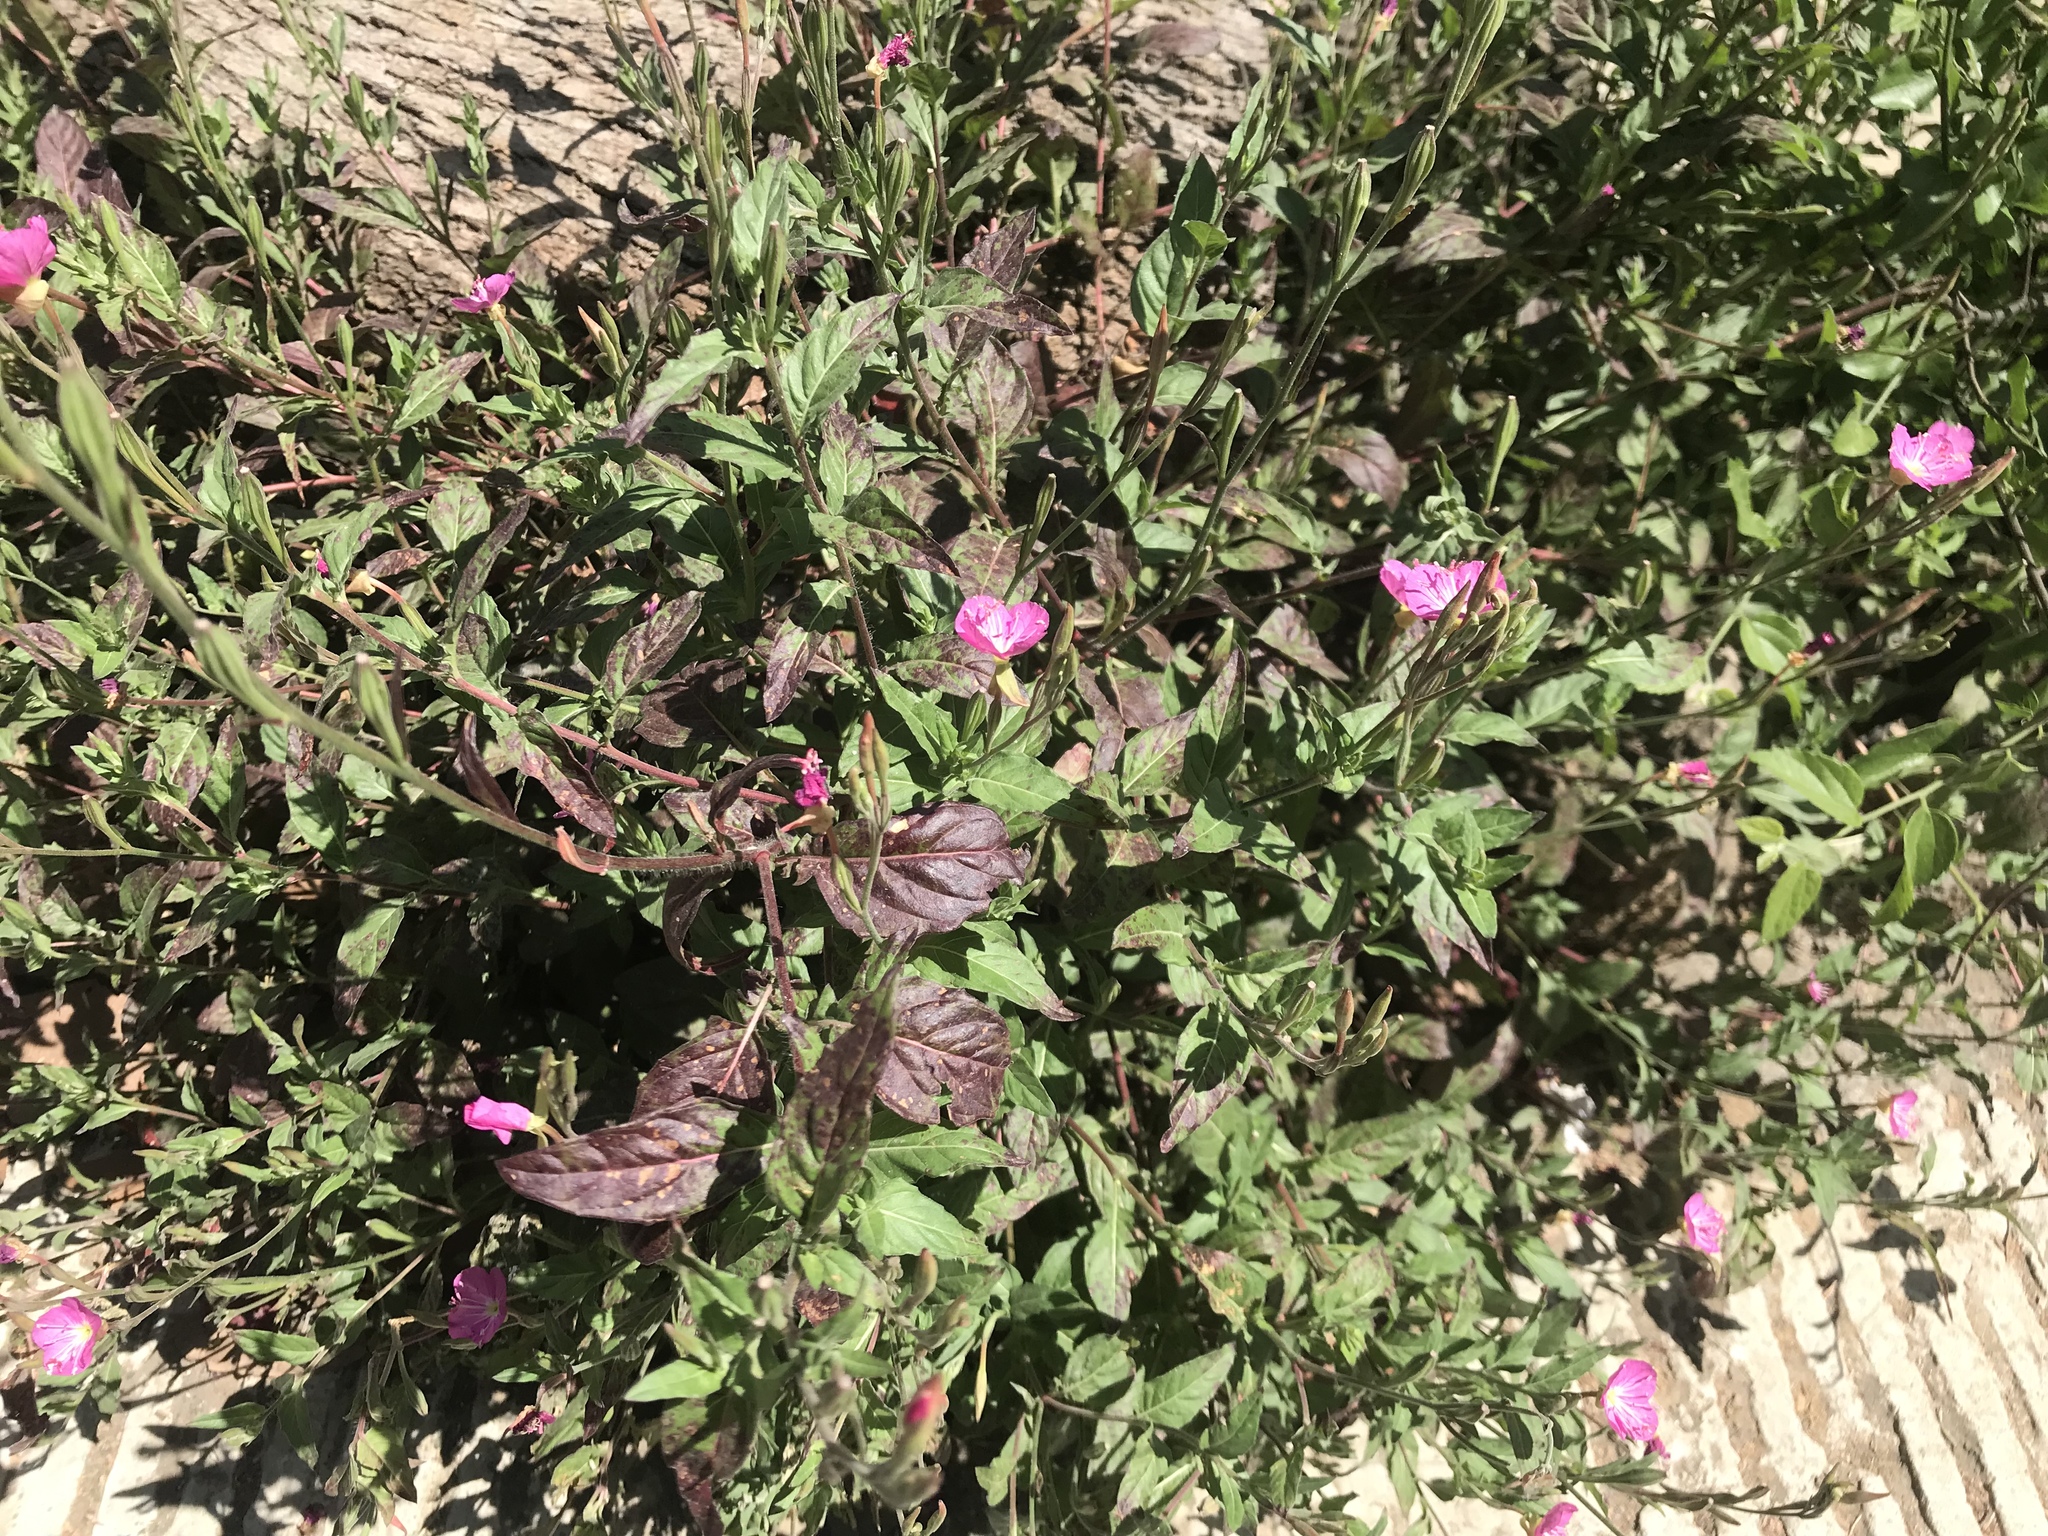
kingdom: Plantae
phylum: Tracheophyta
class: Magnoliopsida
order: Myrtales
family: Onagraceae
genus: Oenothera
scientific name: Oenothera rosea
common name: Rosy evening-primrose
